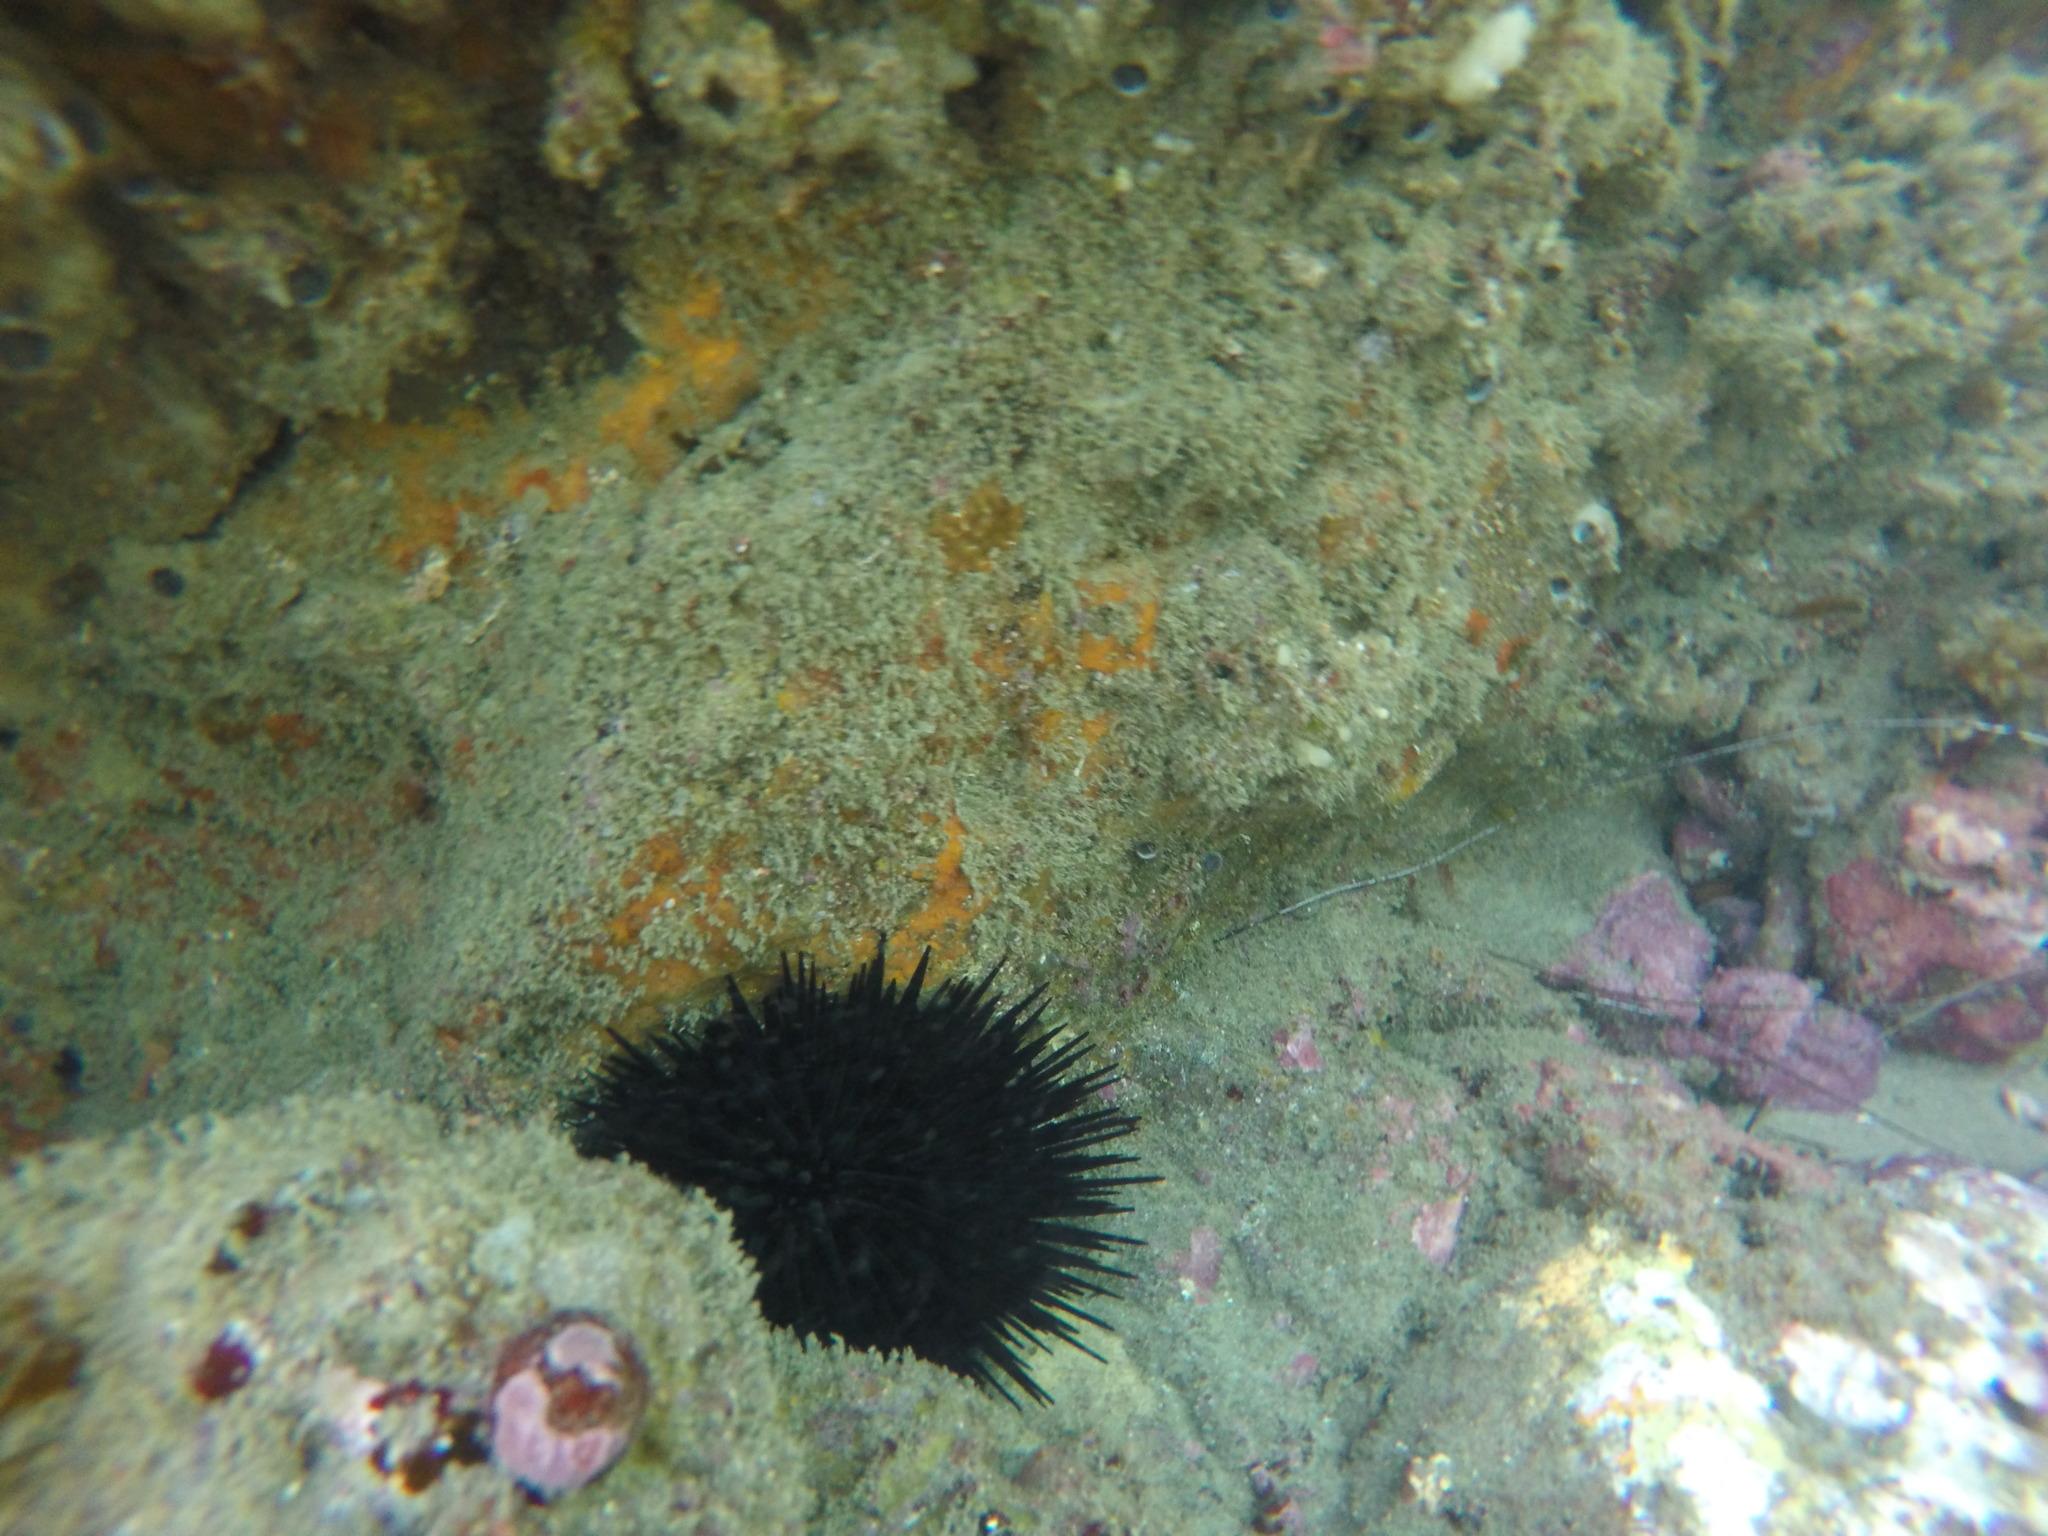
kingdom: Animalia
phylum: Echinodermata
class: Echinoidea
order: Camarodonta
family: Strongylocentrotidae
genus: Mesocentrotus
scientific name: Mesocentrotus franciscanus
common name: Red sea urchin
